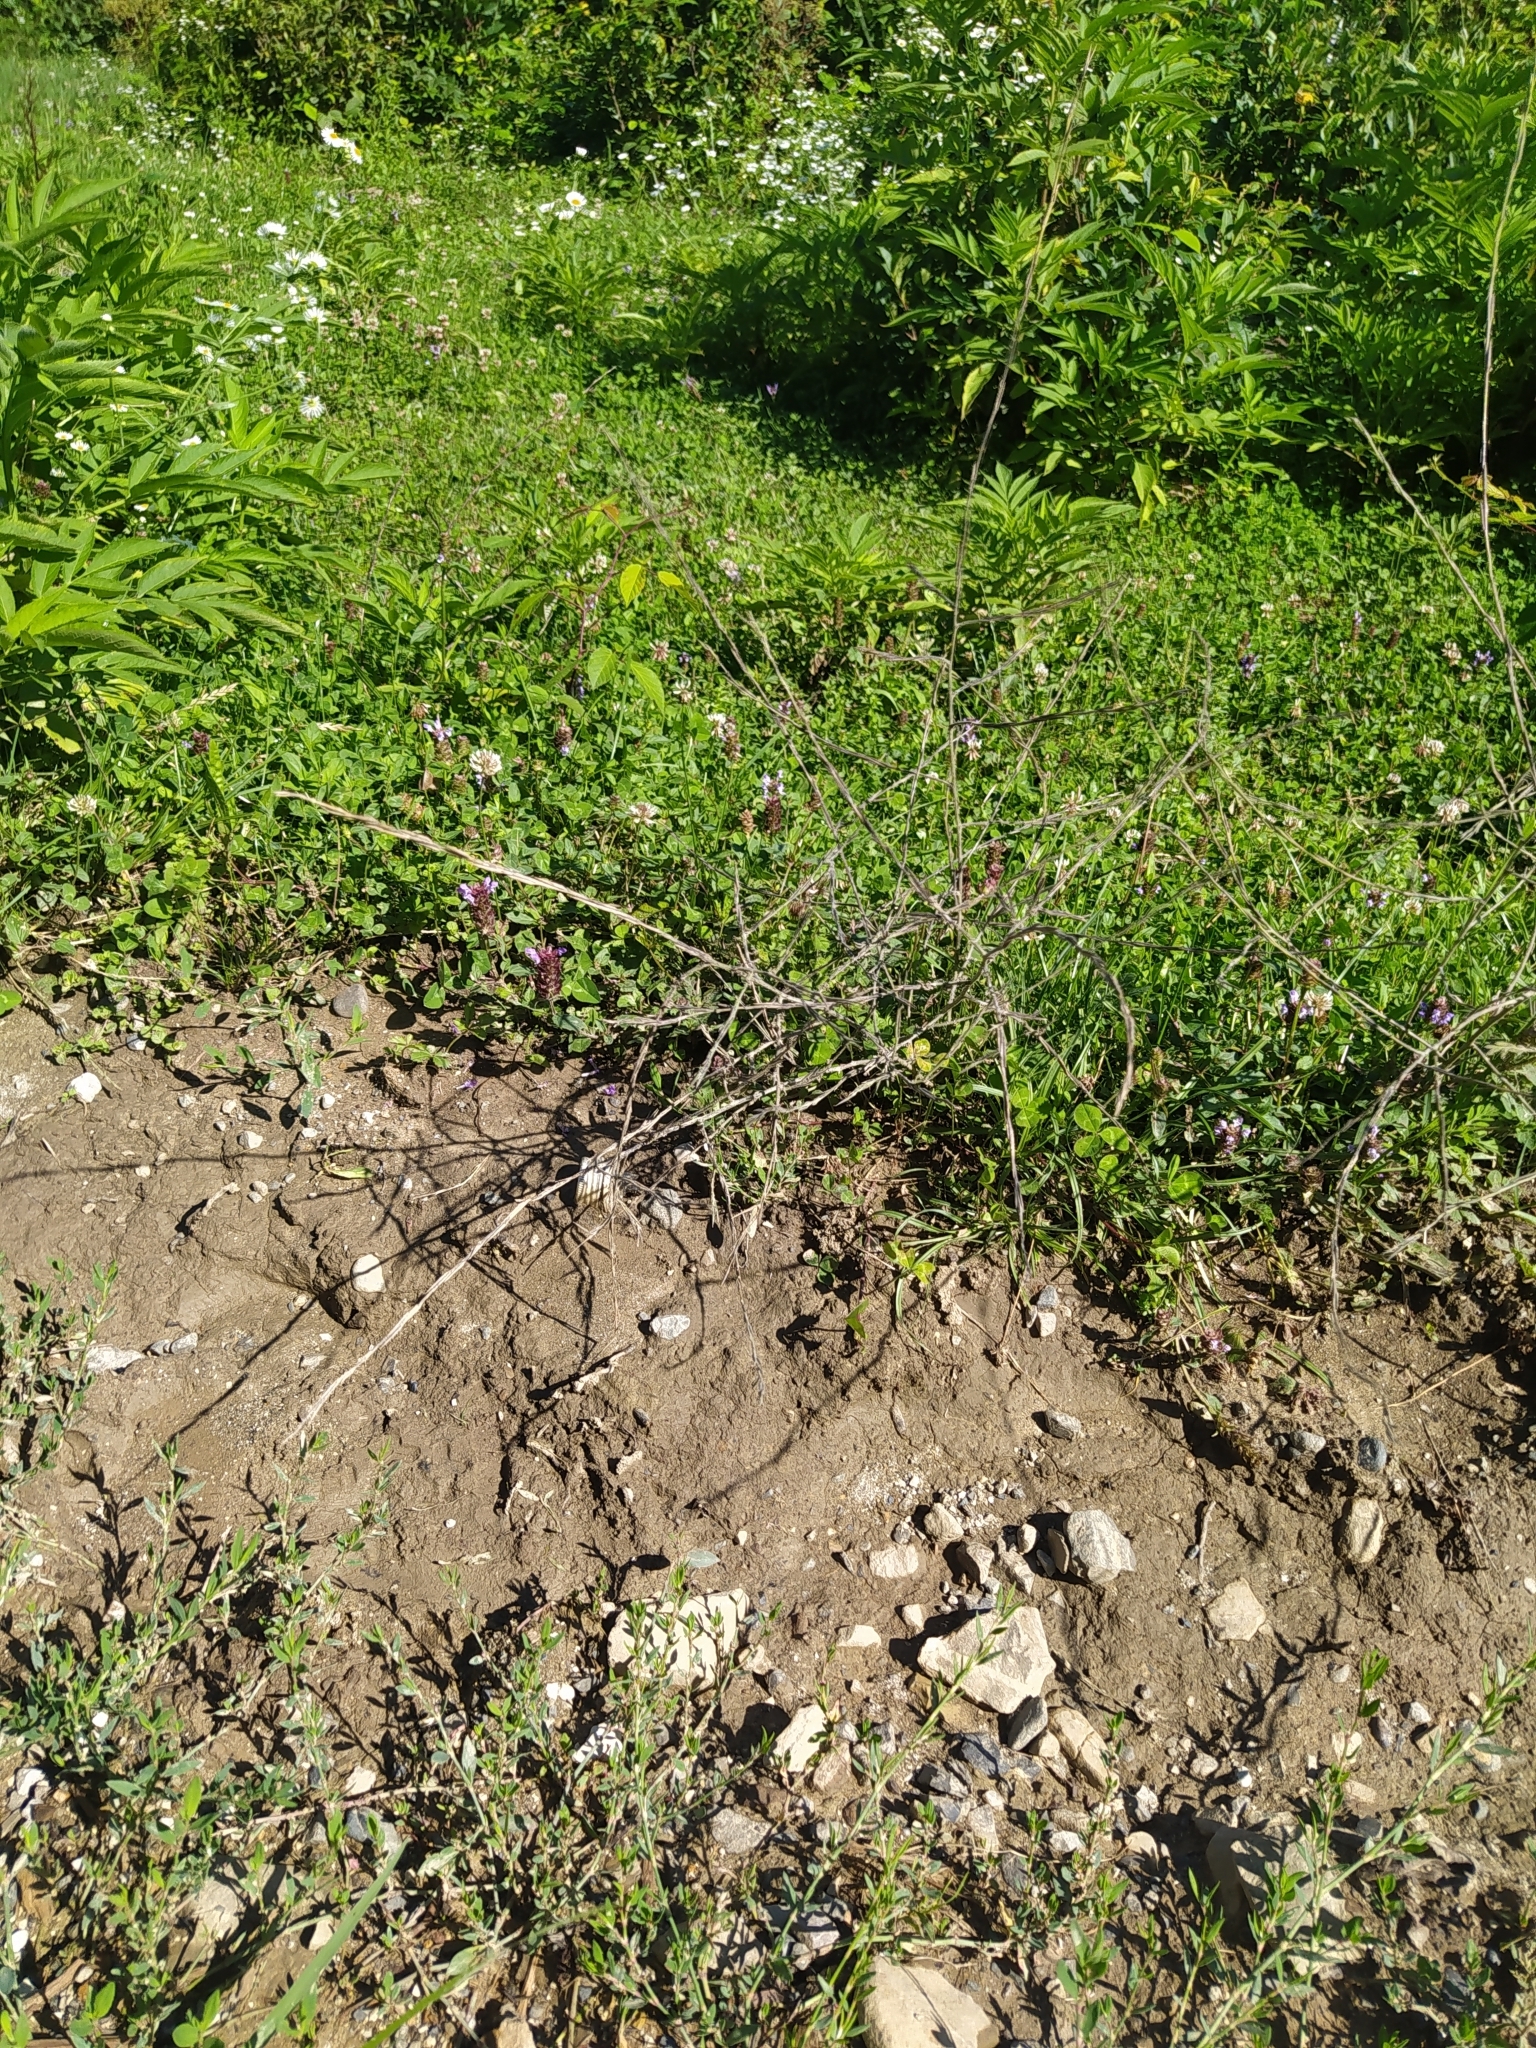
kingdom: Plantae
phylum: Tracheophyta
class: Magnoliopsida
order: Brassicales
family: Brassicaceae
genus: Sisymbrium
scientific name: Sisymbrium officinale
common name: Hedge mustard
